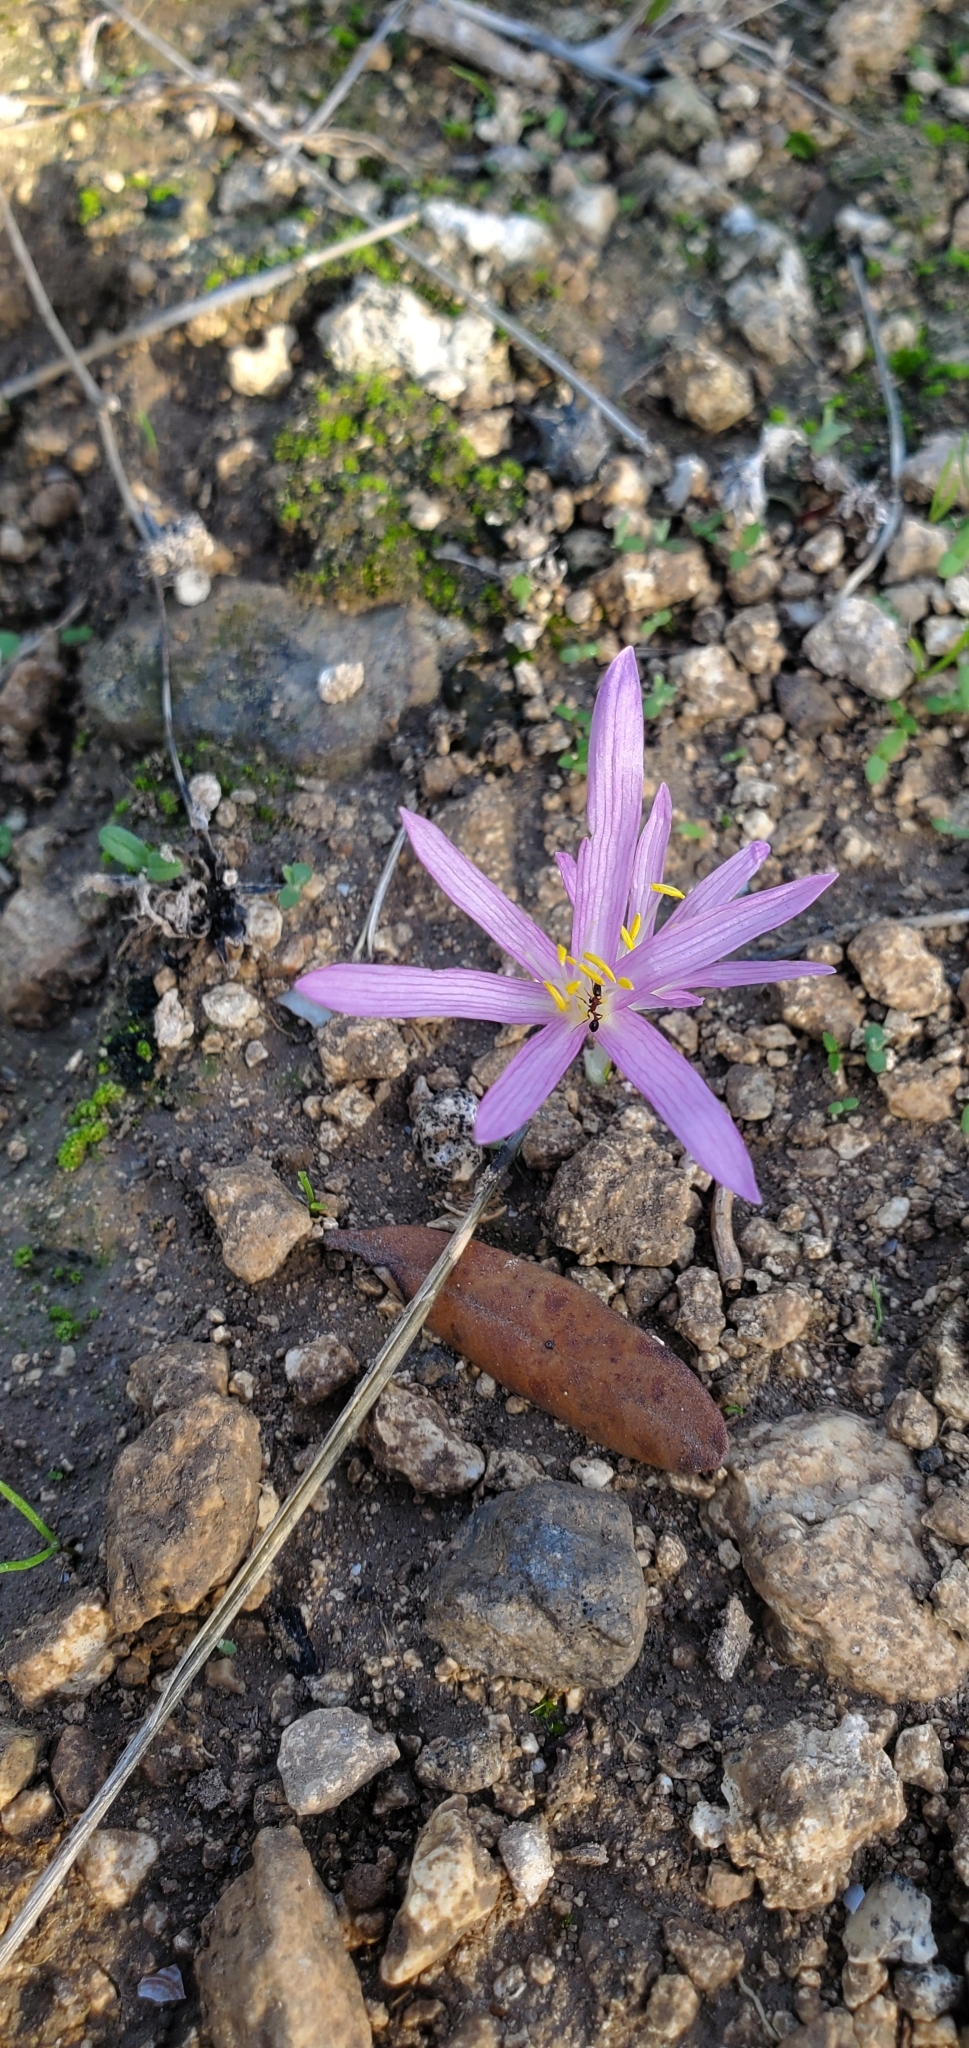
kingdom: Plantae
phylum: Tracheophyta
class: Liliopsida
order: Liliales
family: Colchicaceae
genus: Colchicum
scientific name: Colchicum stevenii
